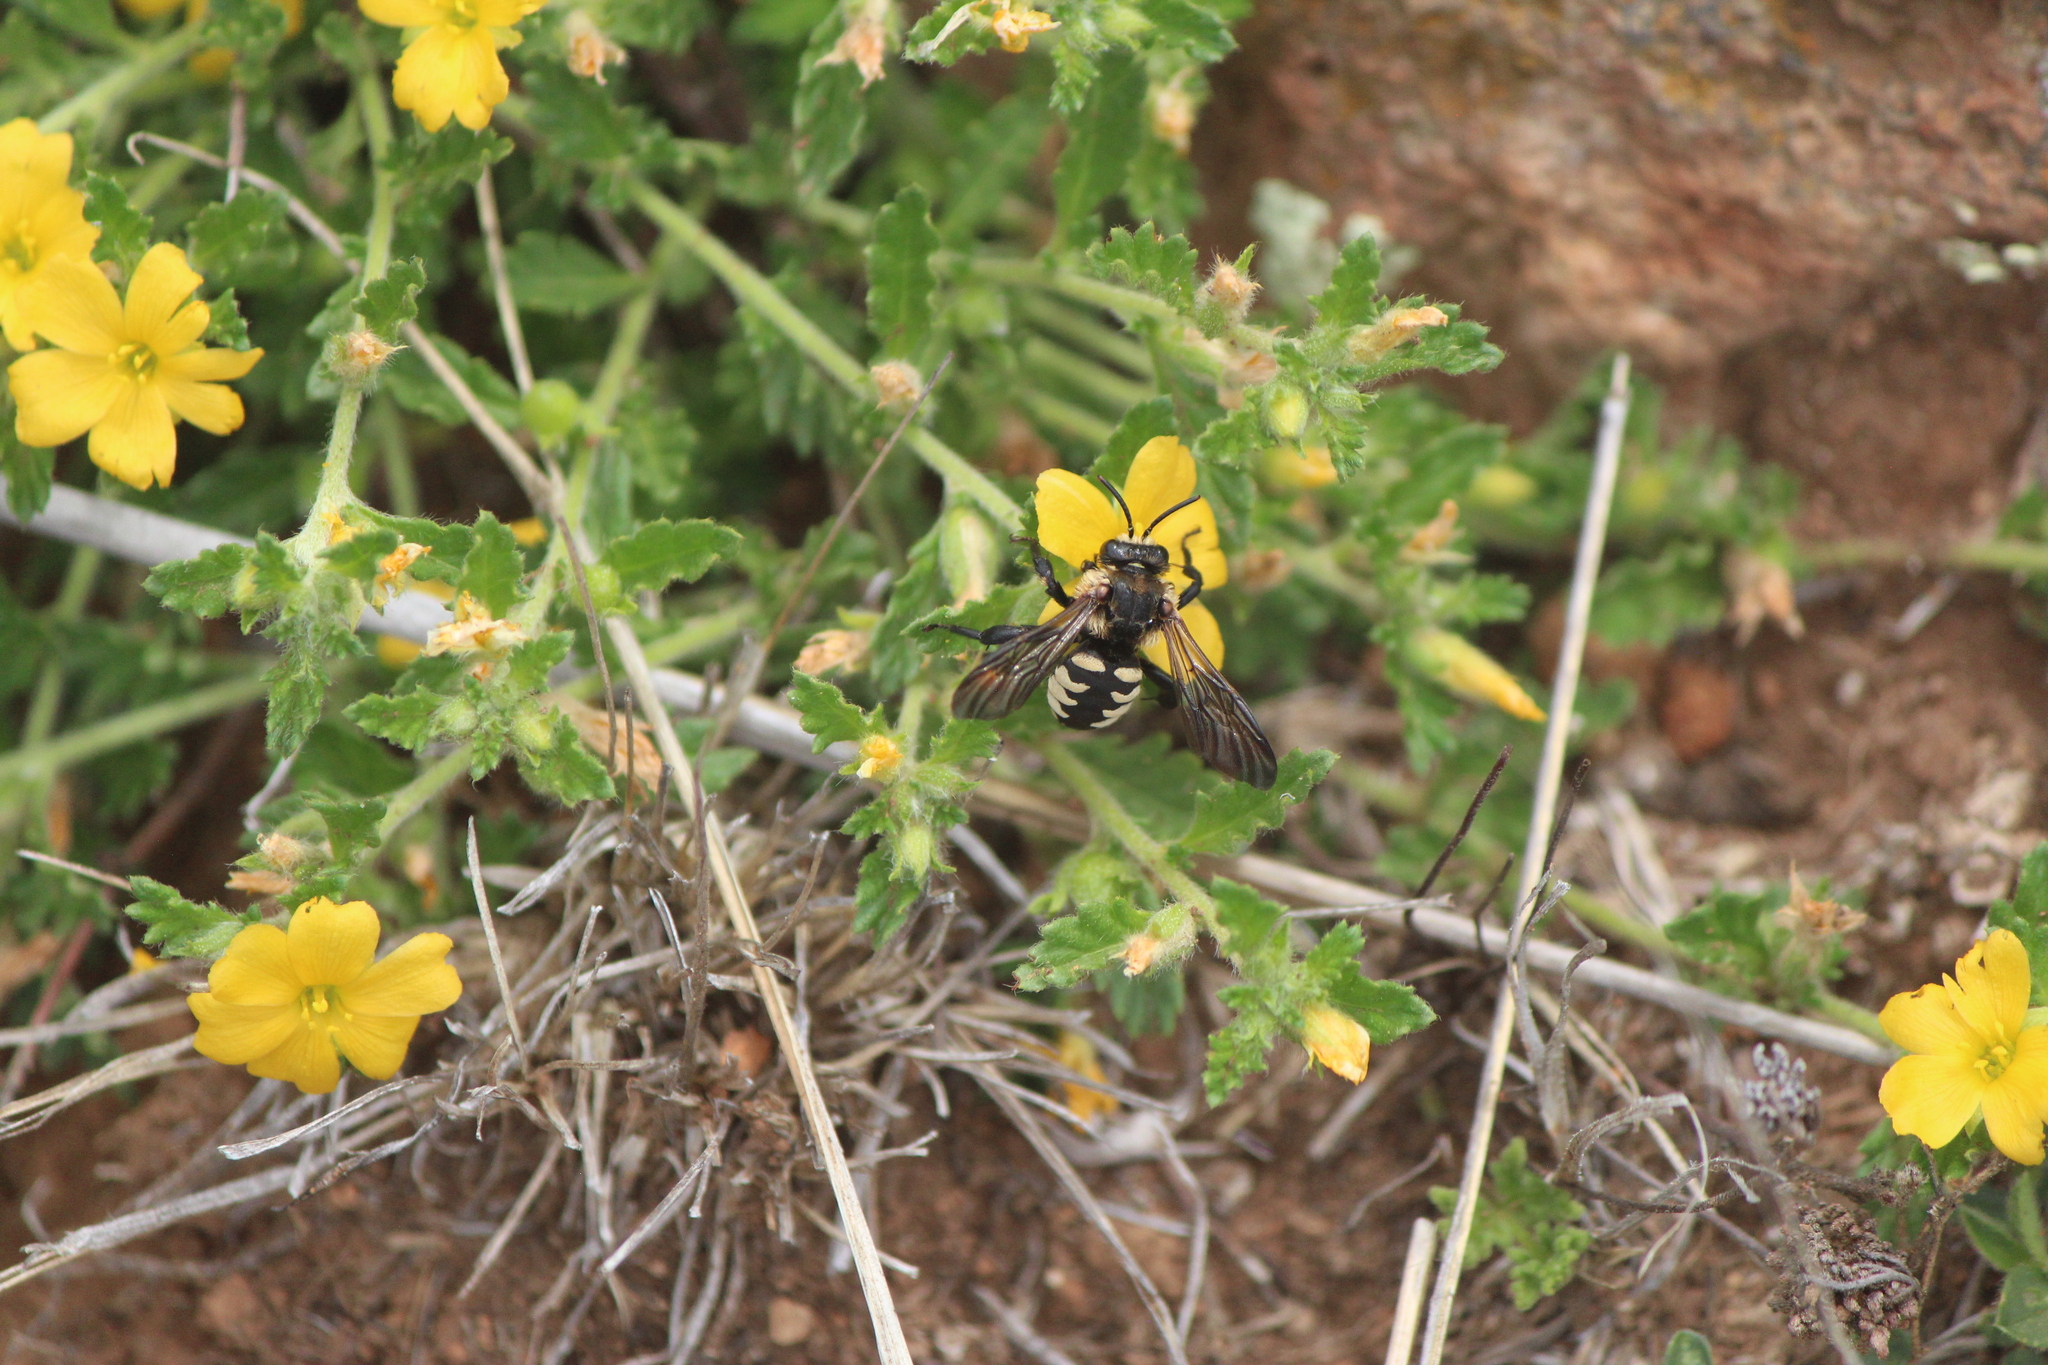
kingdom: Animalia
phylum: Arthropoda
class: Insecta
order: Hymenoptera
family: Apidae
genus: Ericrocis
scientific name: Ericrocis pintada
